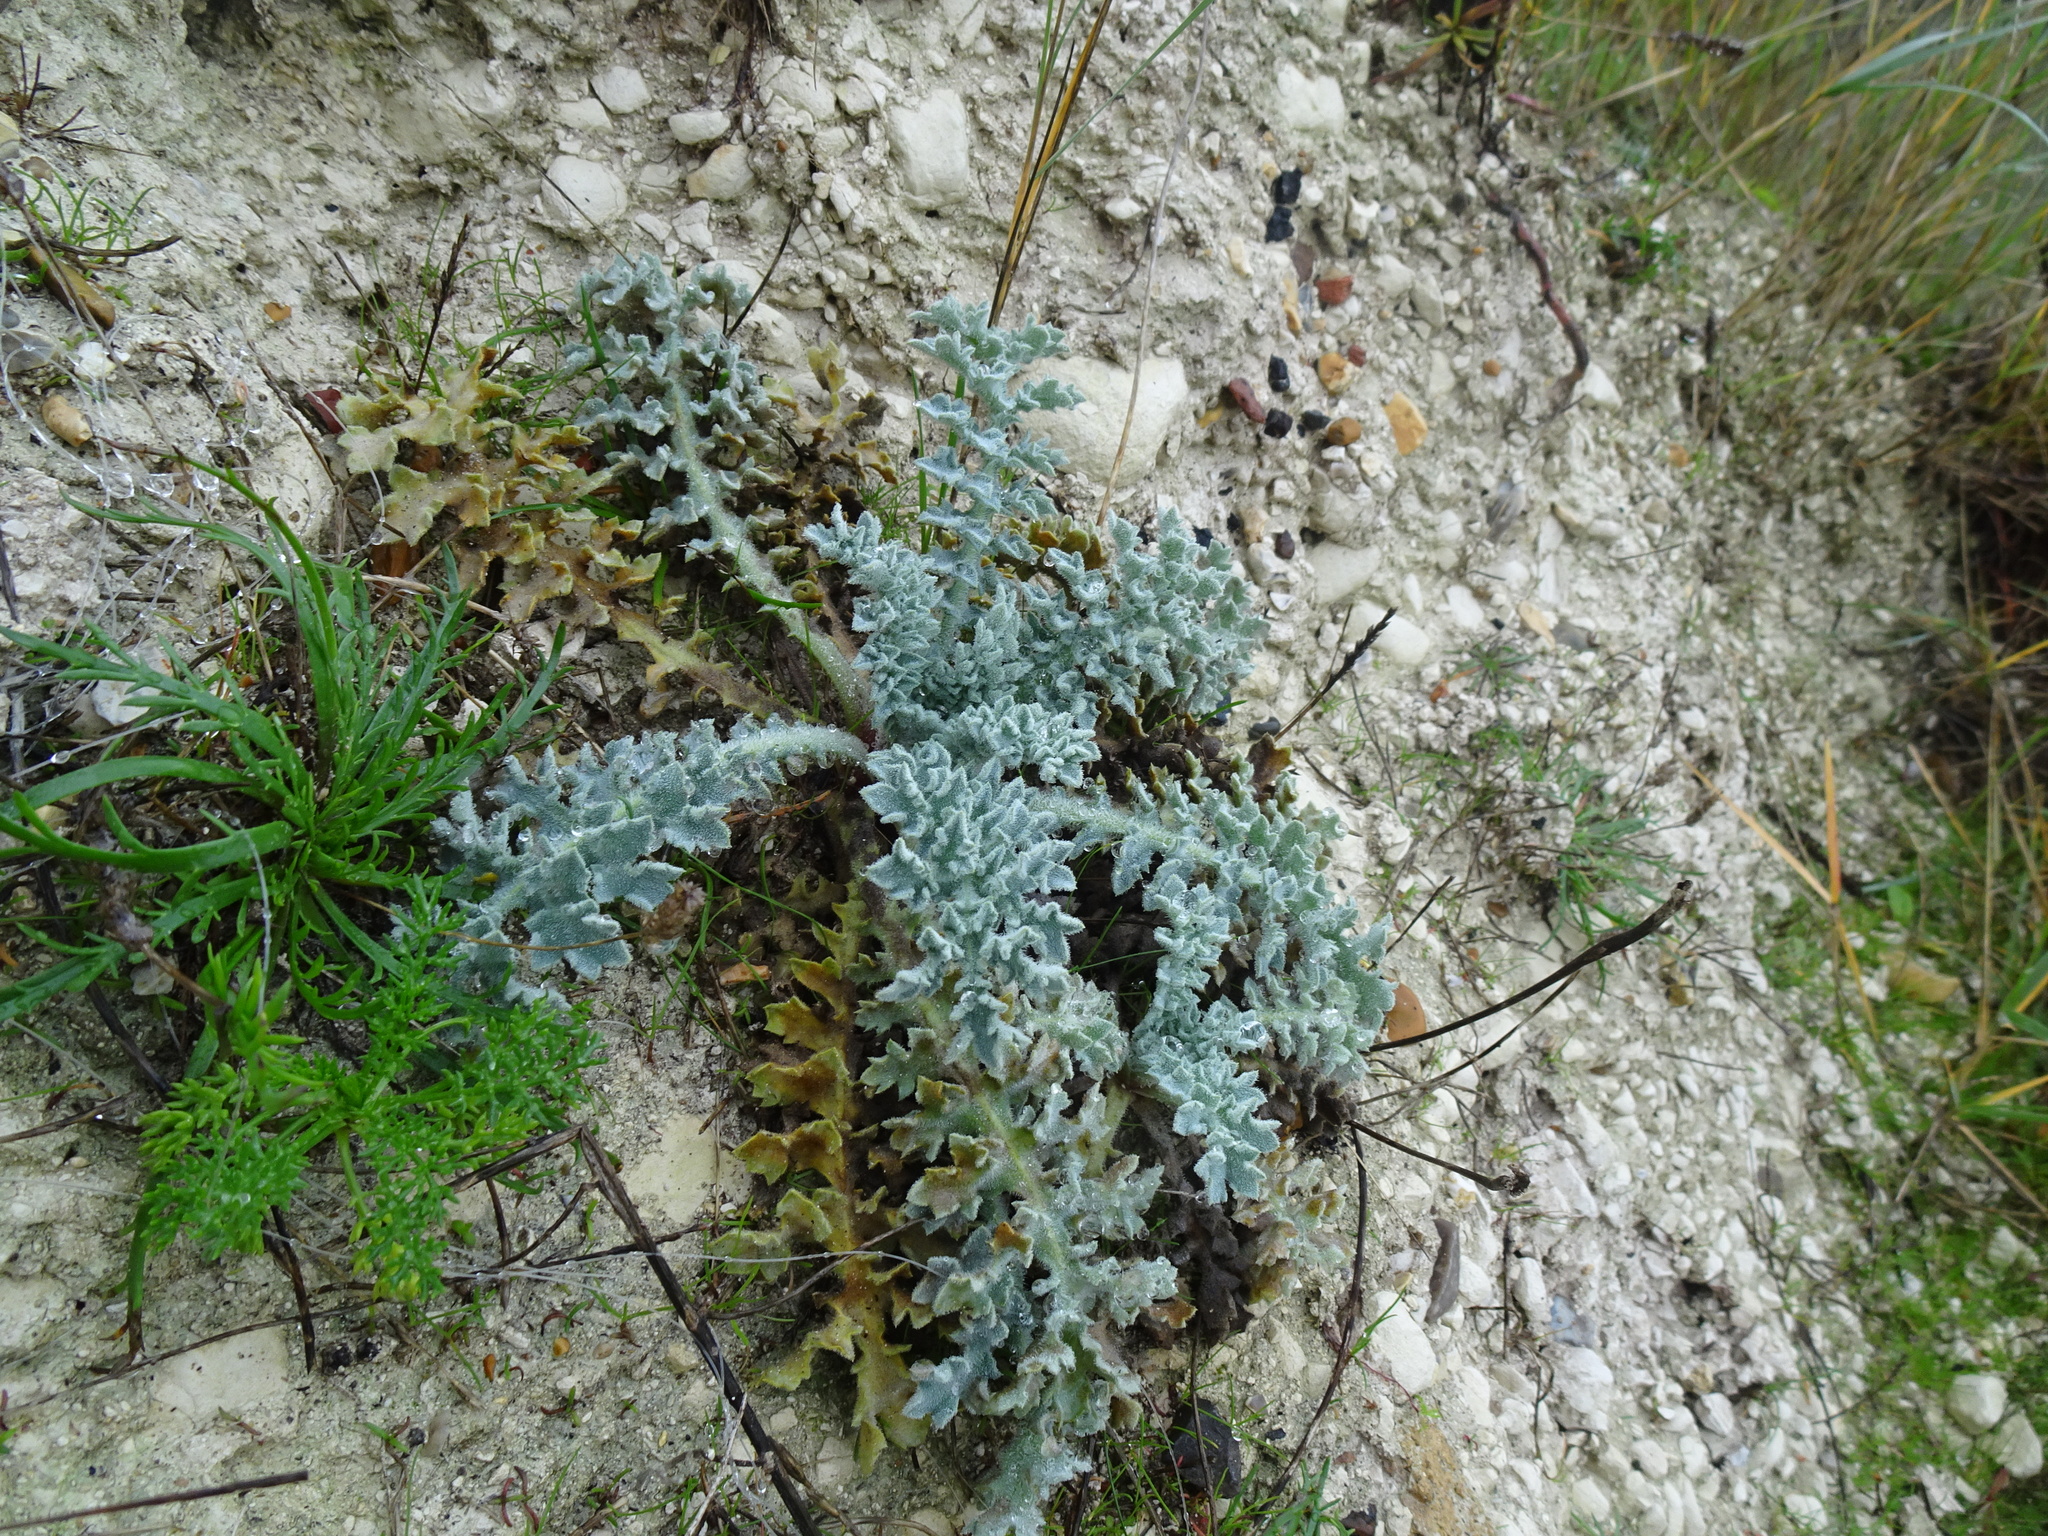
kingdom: Plantae
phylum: Tracheophyta
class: Magnoliopsida
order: Ranunculales
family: Papaveraceae
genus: Glaucium
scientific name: Glaucium flavum
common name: Yellow horned-poppy
